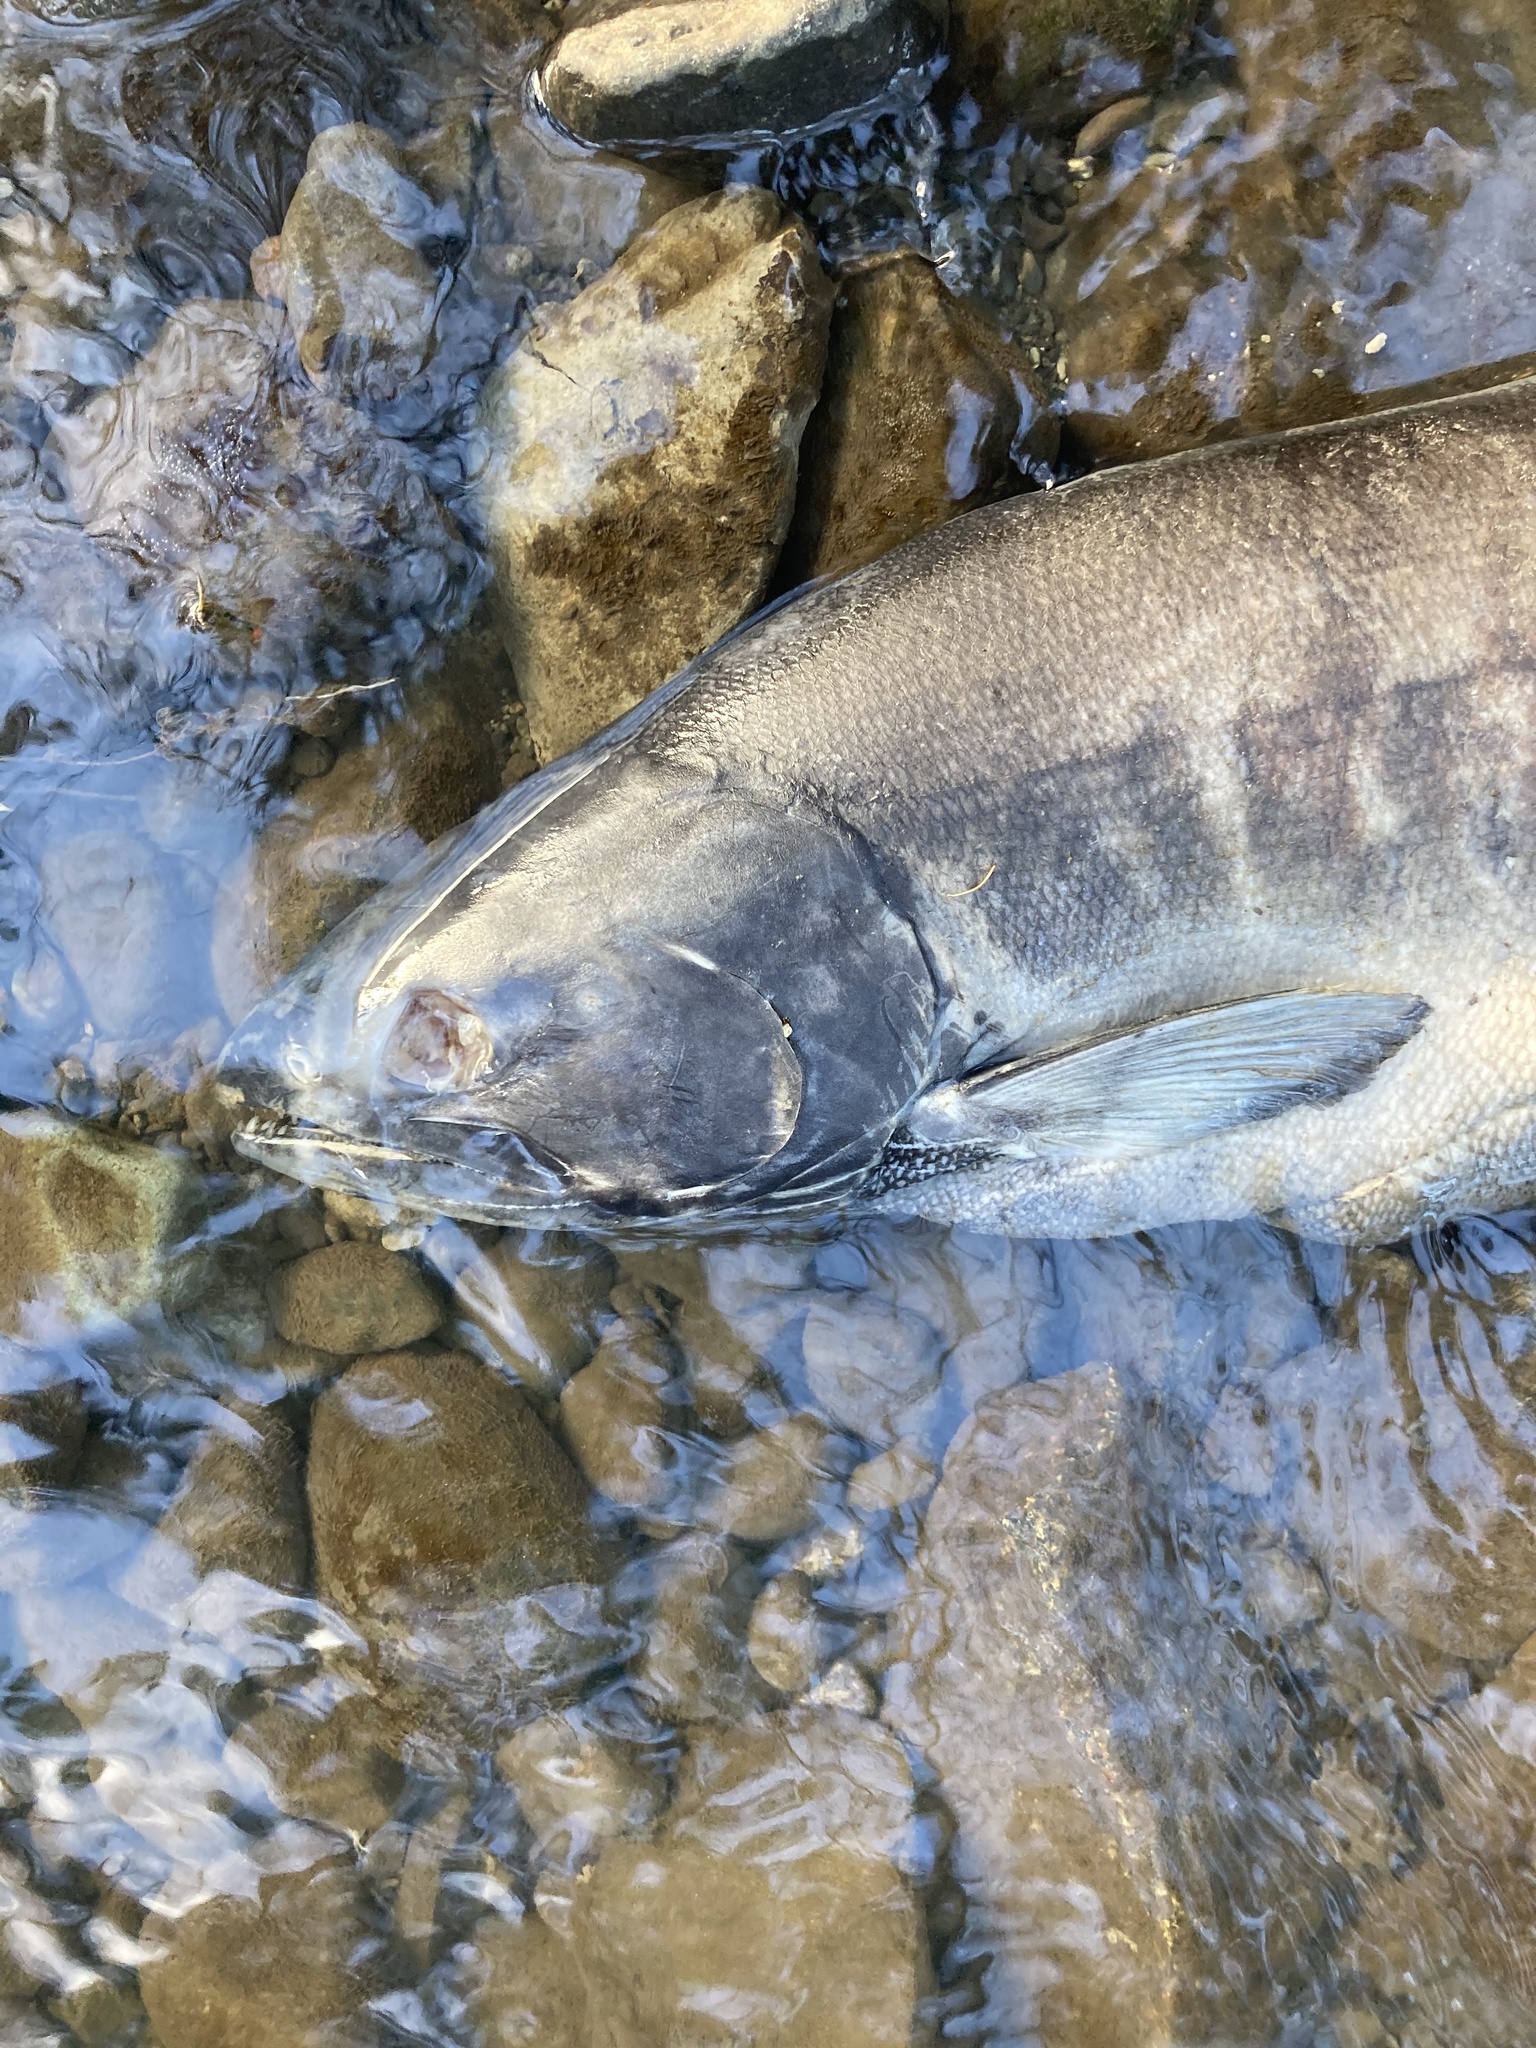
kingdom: Animalia
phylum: Chordata
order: Salmoniformes
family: Salmonidae
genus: Oncorhynchus
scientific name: Oncorhynchus keta
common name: Chum salmon
